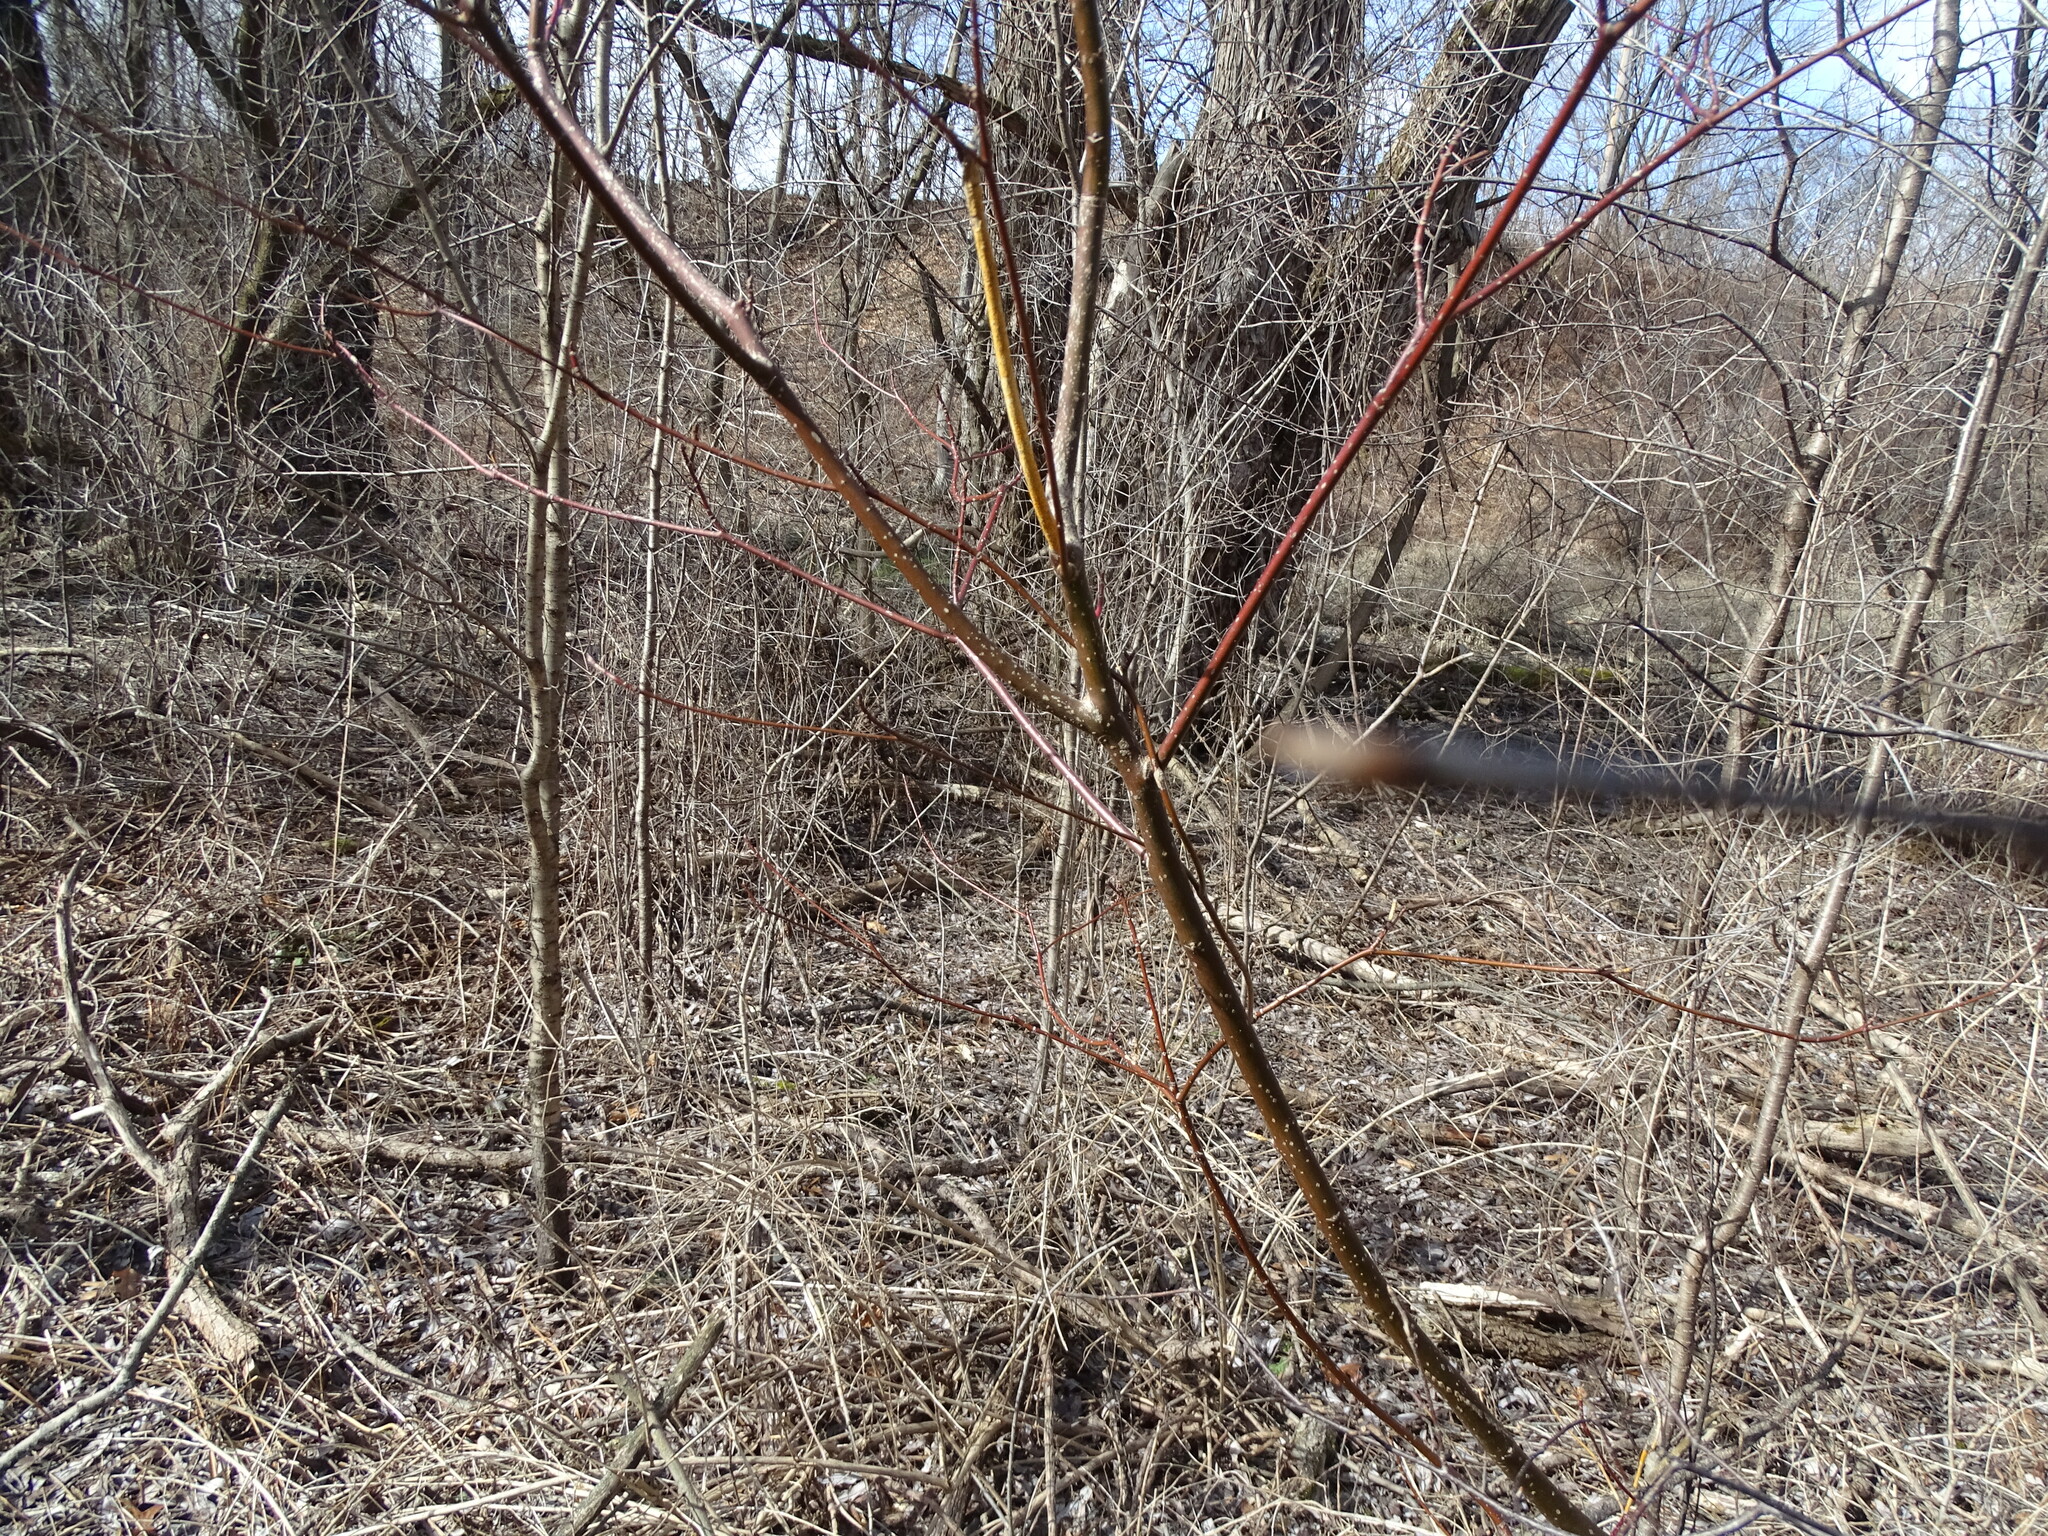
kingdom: Plantae
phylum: Tracheophyta
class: Magnoliopsida
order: Cornales
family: Cornaceae
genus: Cornus
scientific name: Cornus alternifolia
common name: Pagoda dogwood
